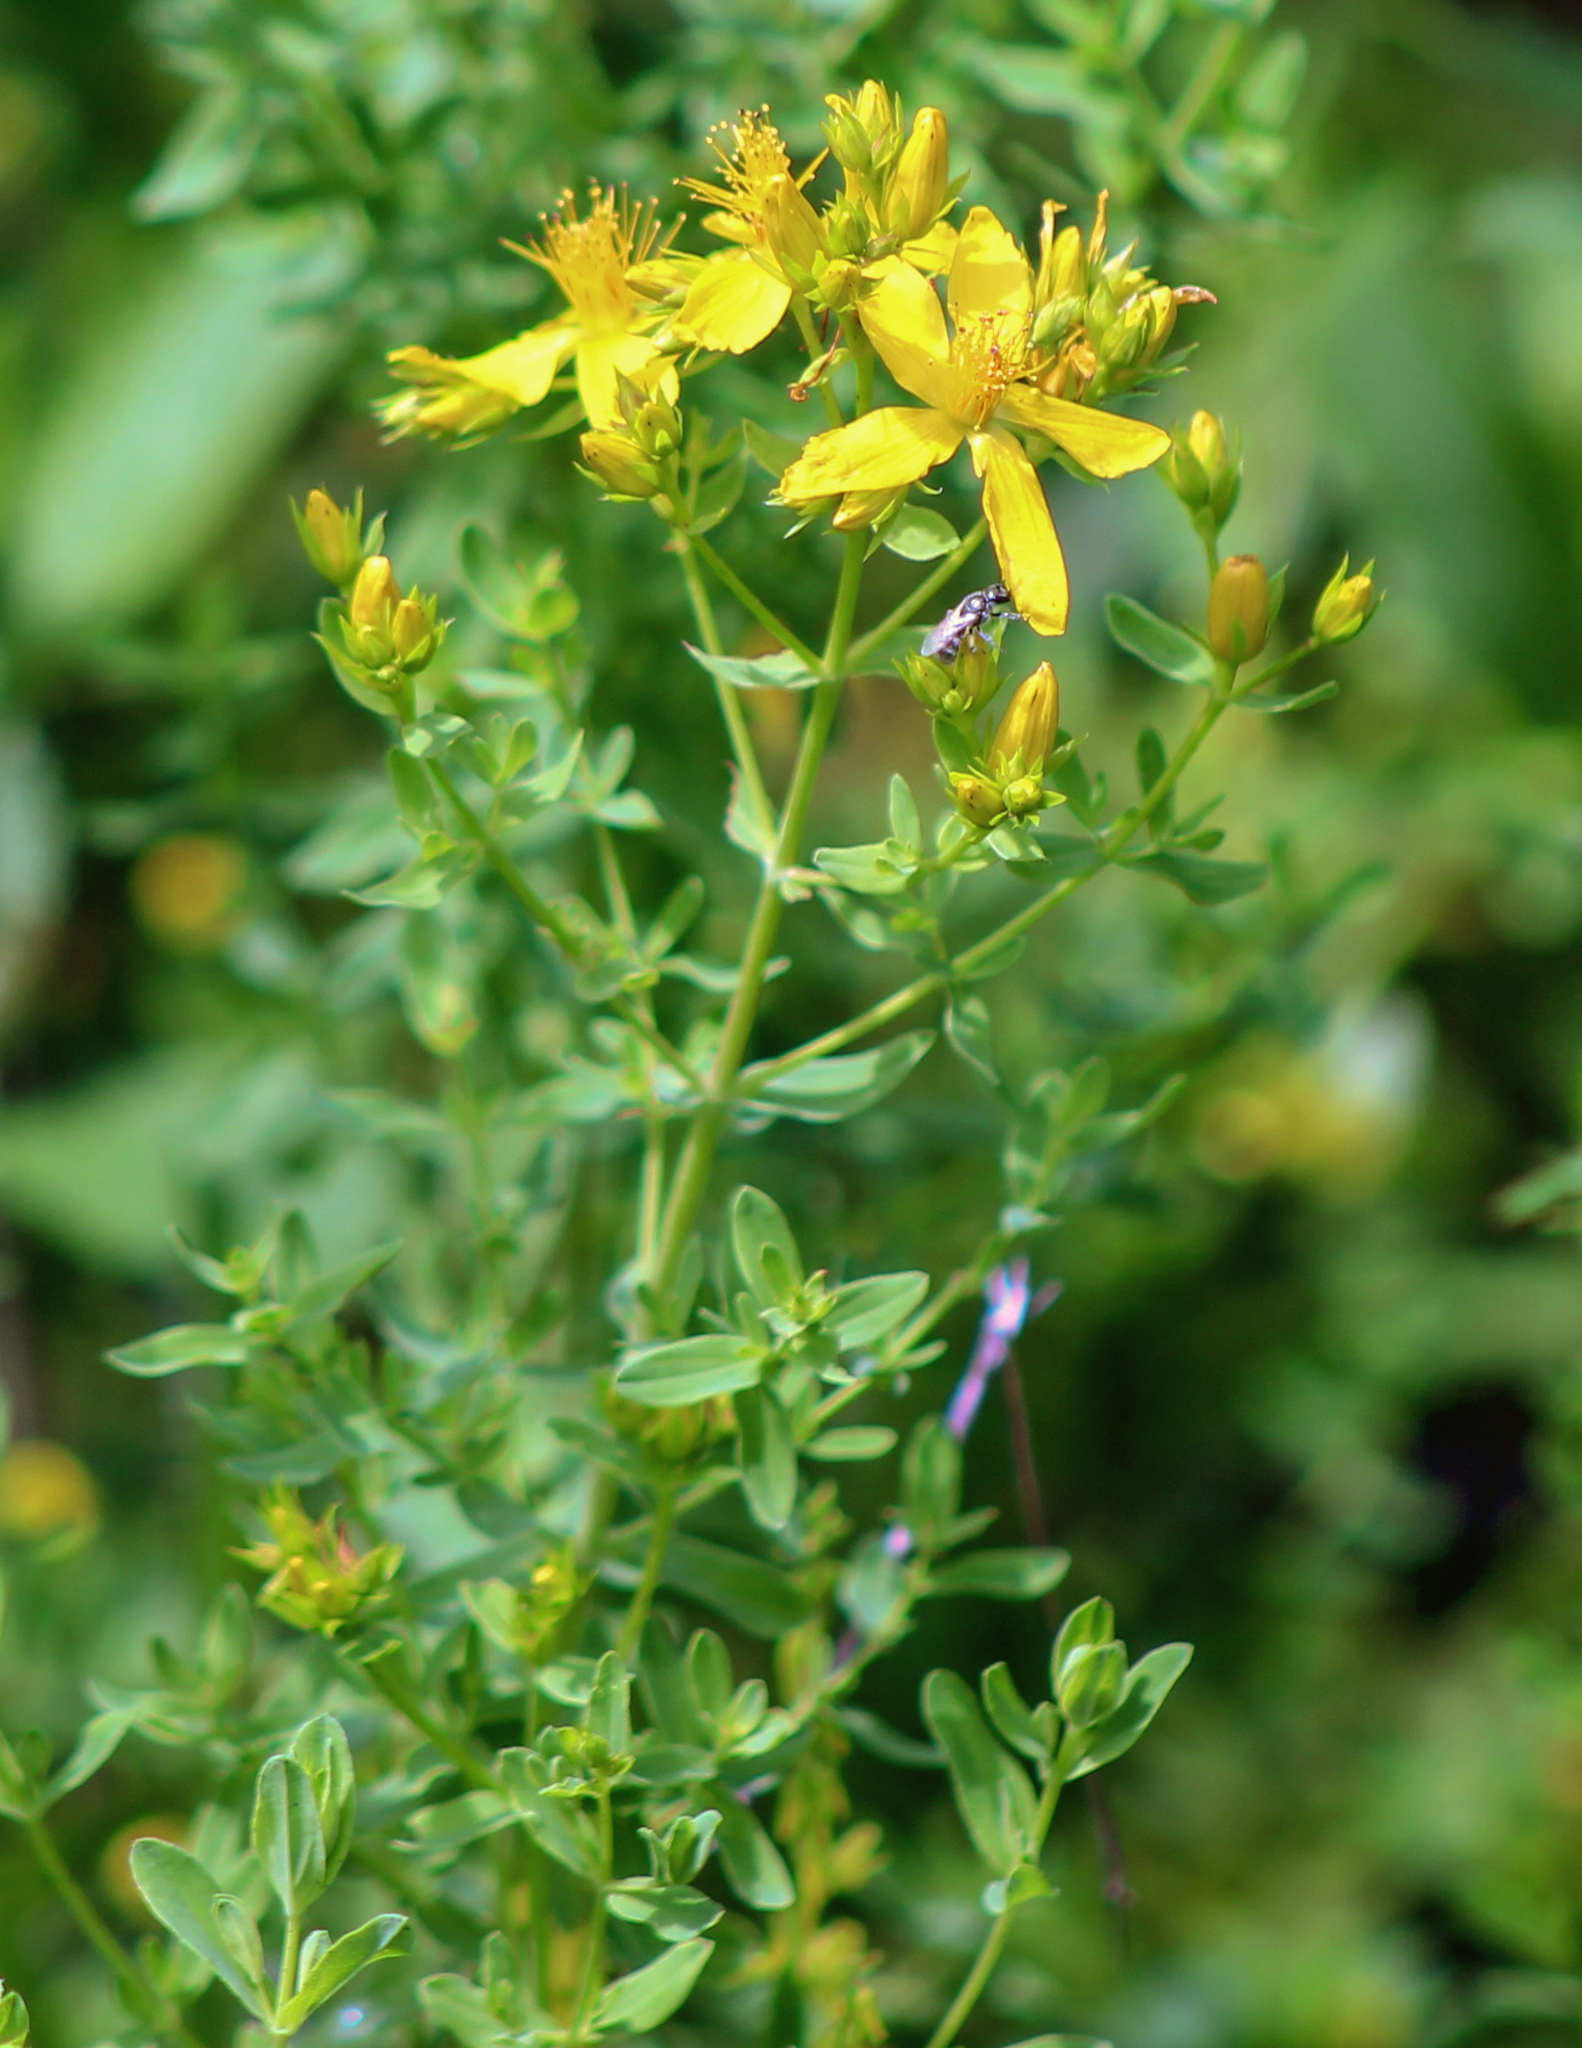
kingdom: Plantae
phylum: Tracheophyta
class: Magnoliopsida
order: Malpighiales
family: Hypericaceae
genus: Hypericum
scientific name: Hypericum perforatum
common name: Common st. johnswort
